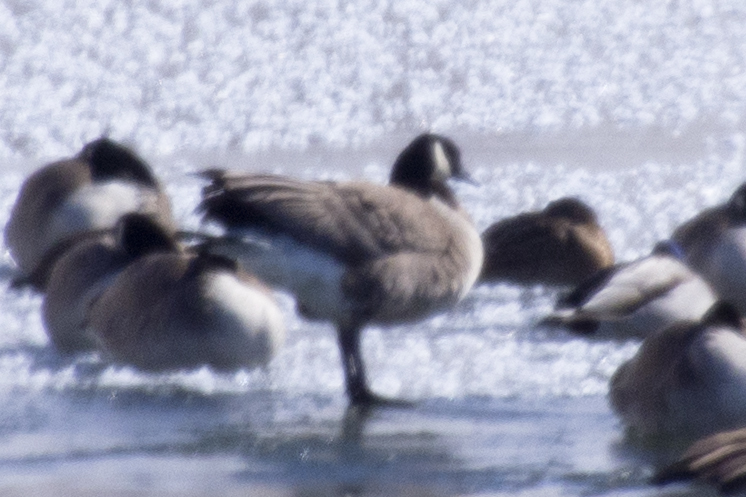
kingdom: Animalia
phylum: Chordata
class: Aves
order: Anseriformes
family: Anatidae
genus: Branta
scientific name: Branta canadensis
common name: Canada goose
